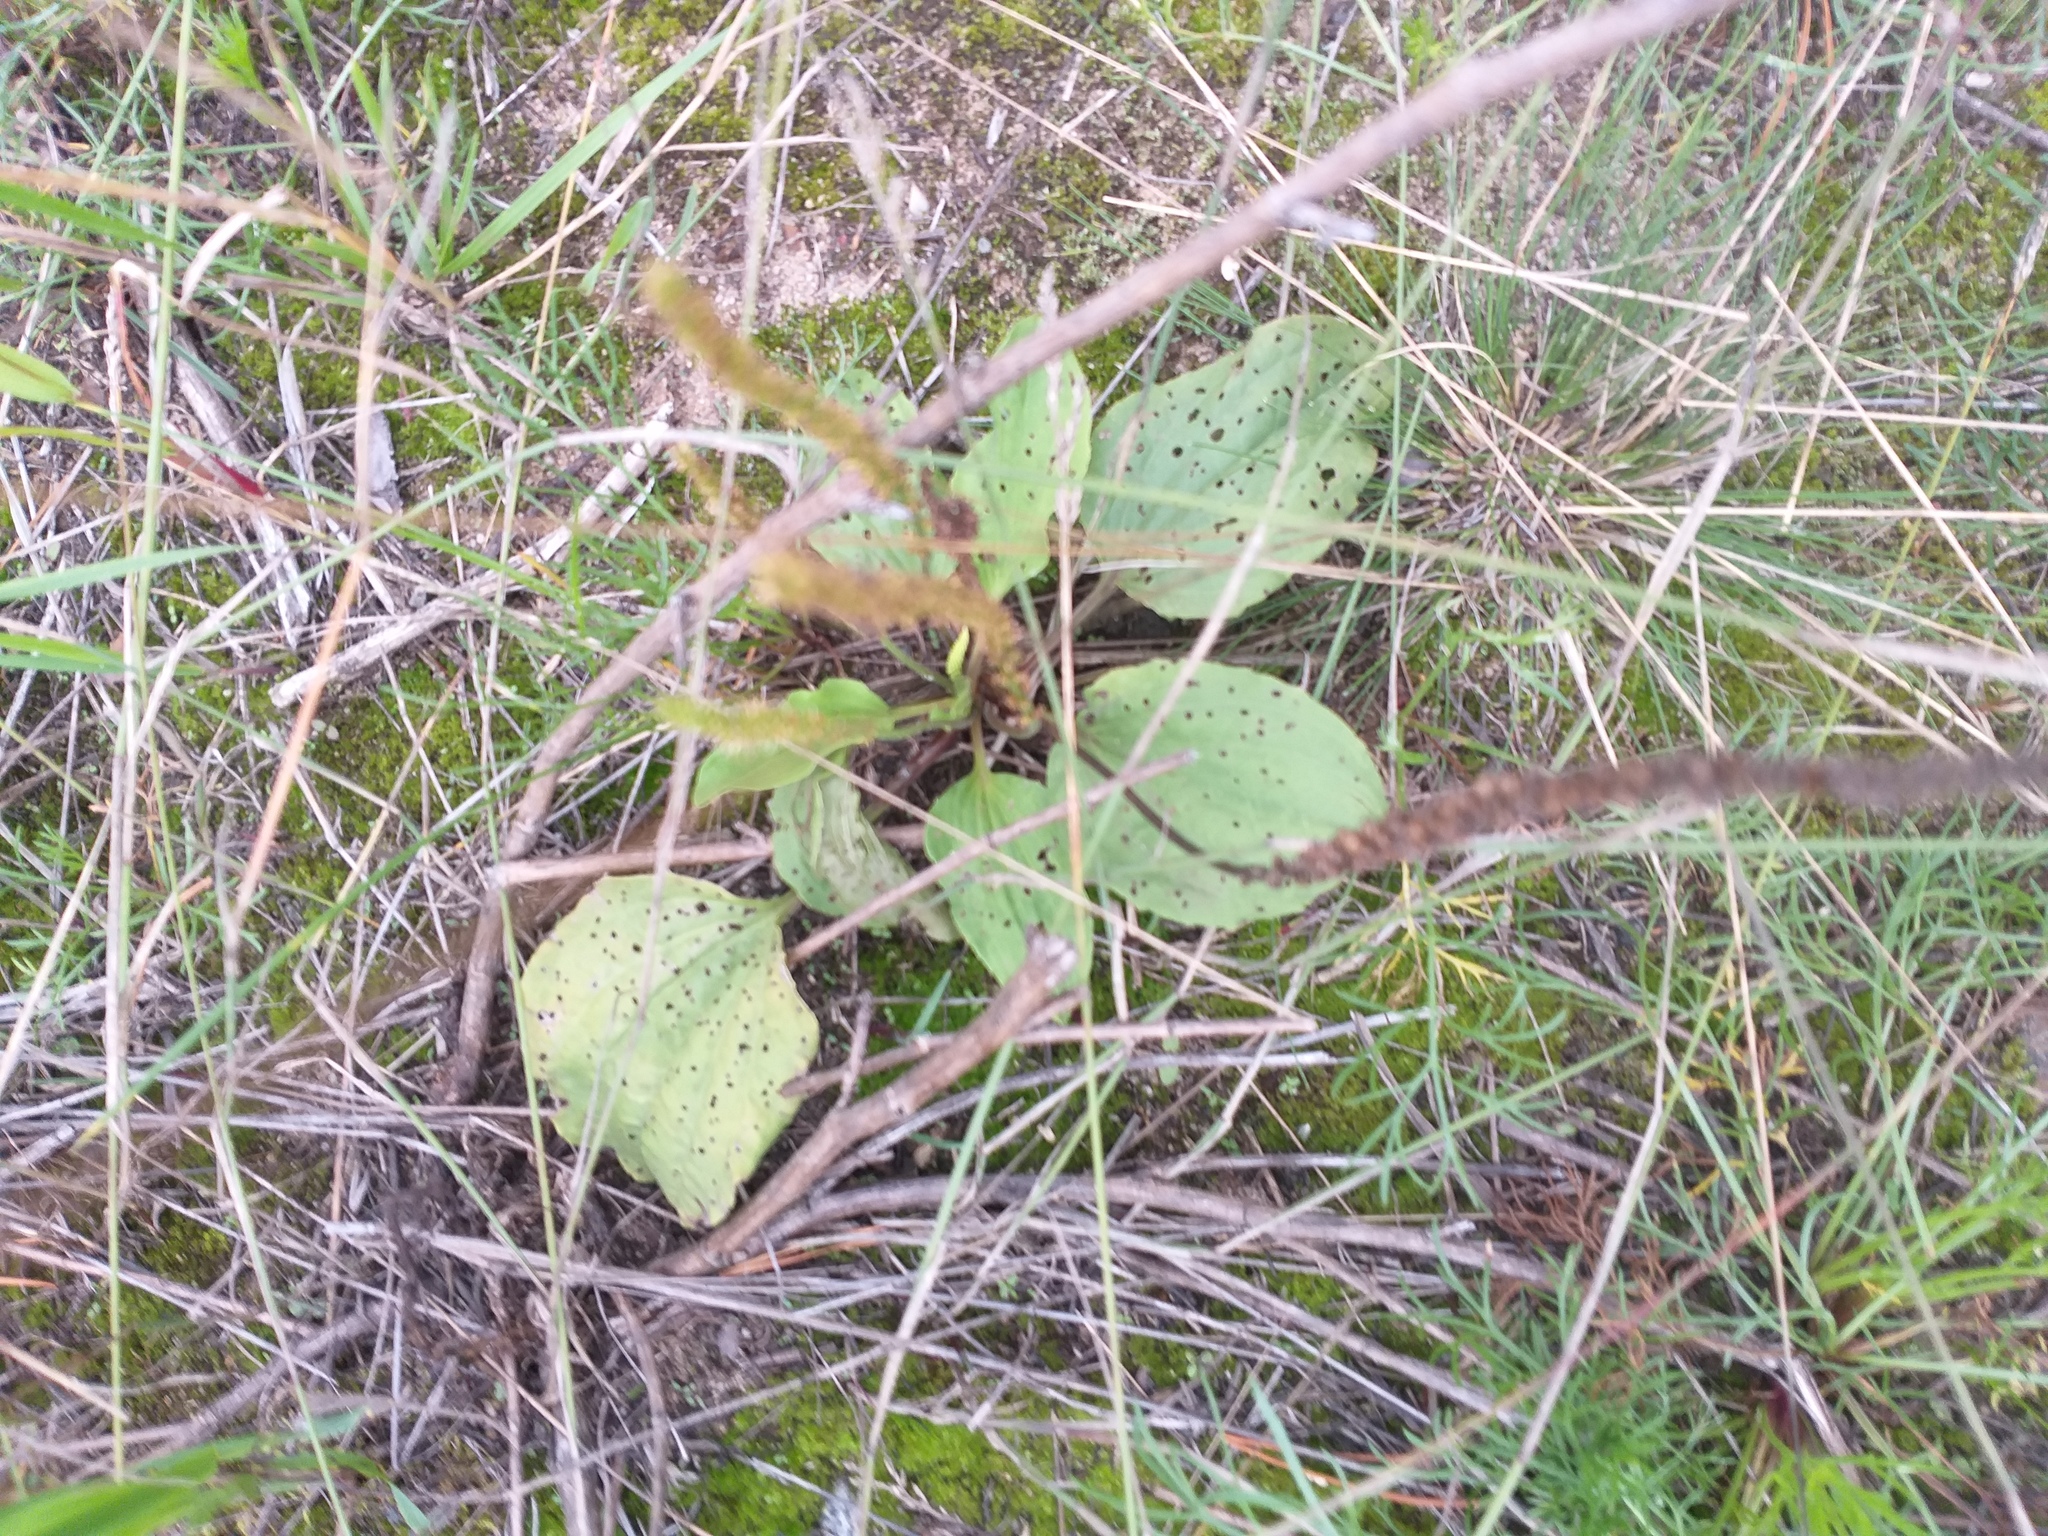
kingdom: Plantae
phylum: Tracheophyta
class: Magnoliopsida
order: Lamiales
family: Plantaginaceae
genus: Plantago
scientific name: Plantago major
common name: Common plantain
